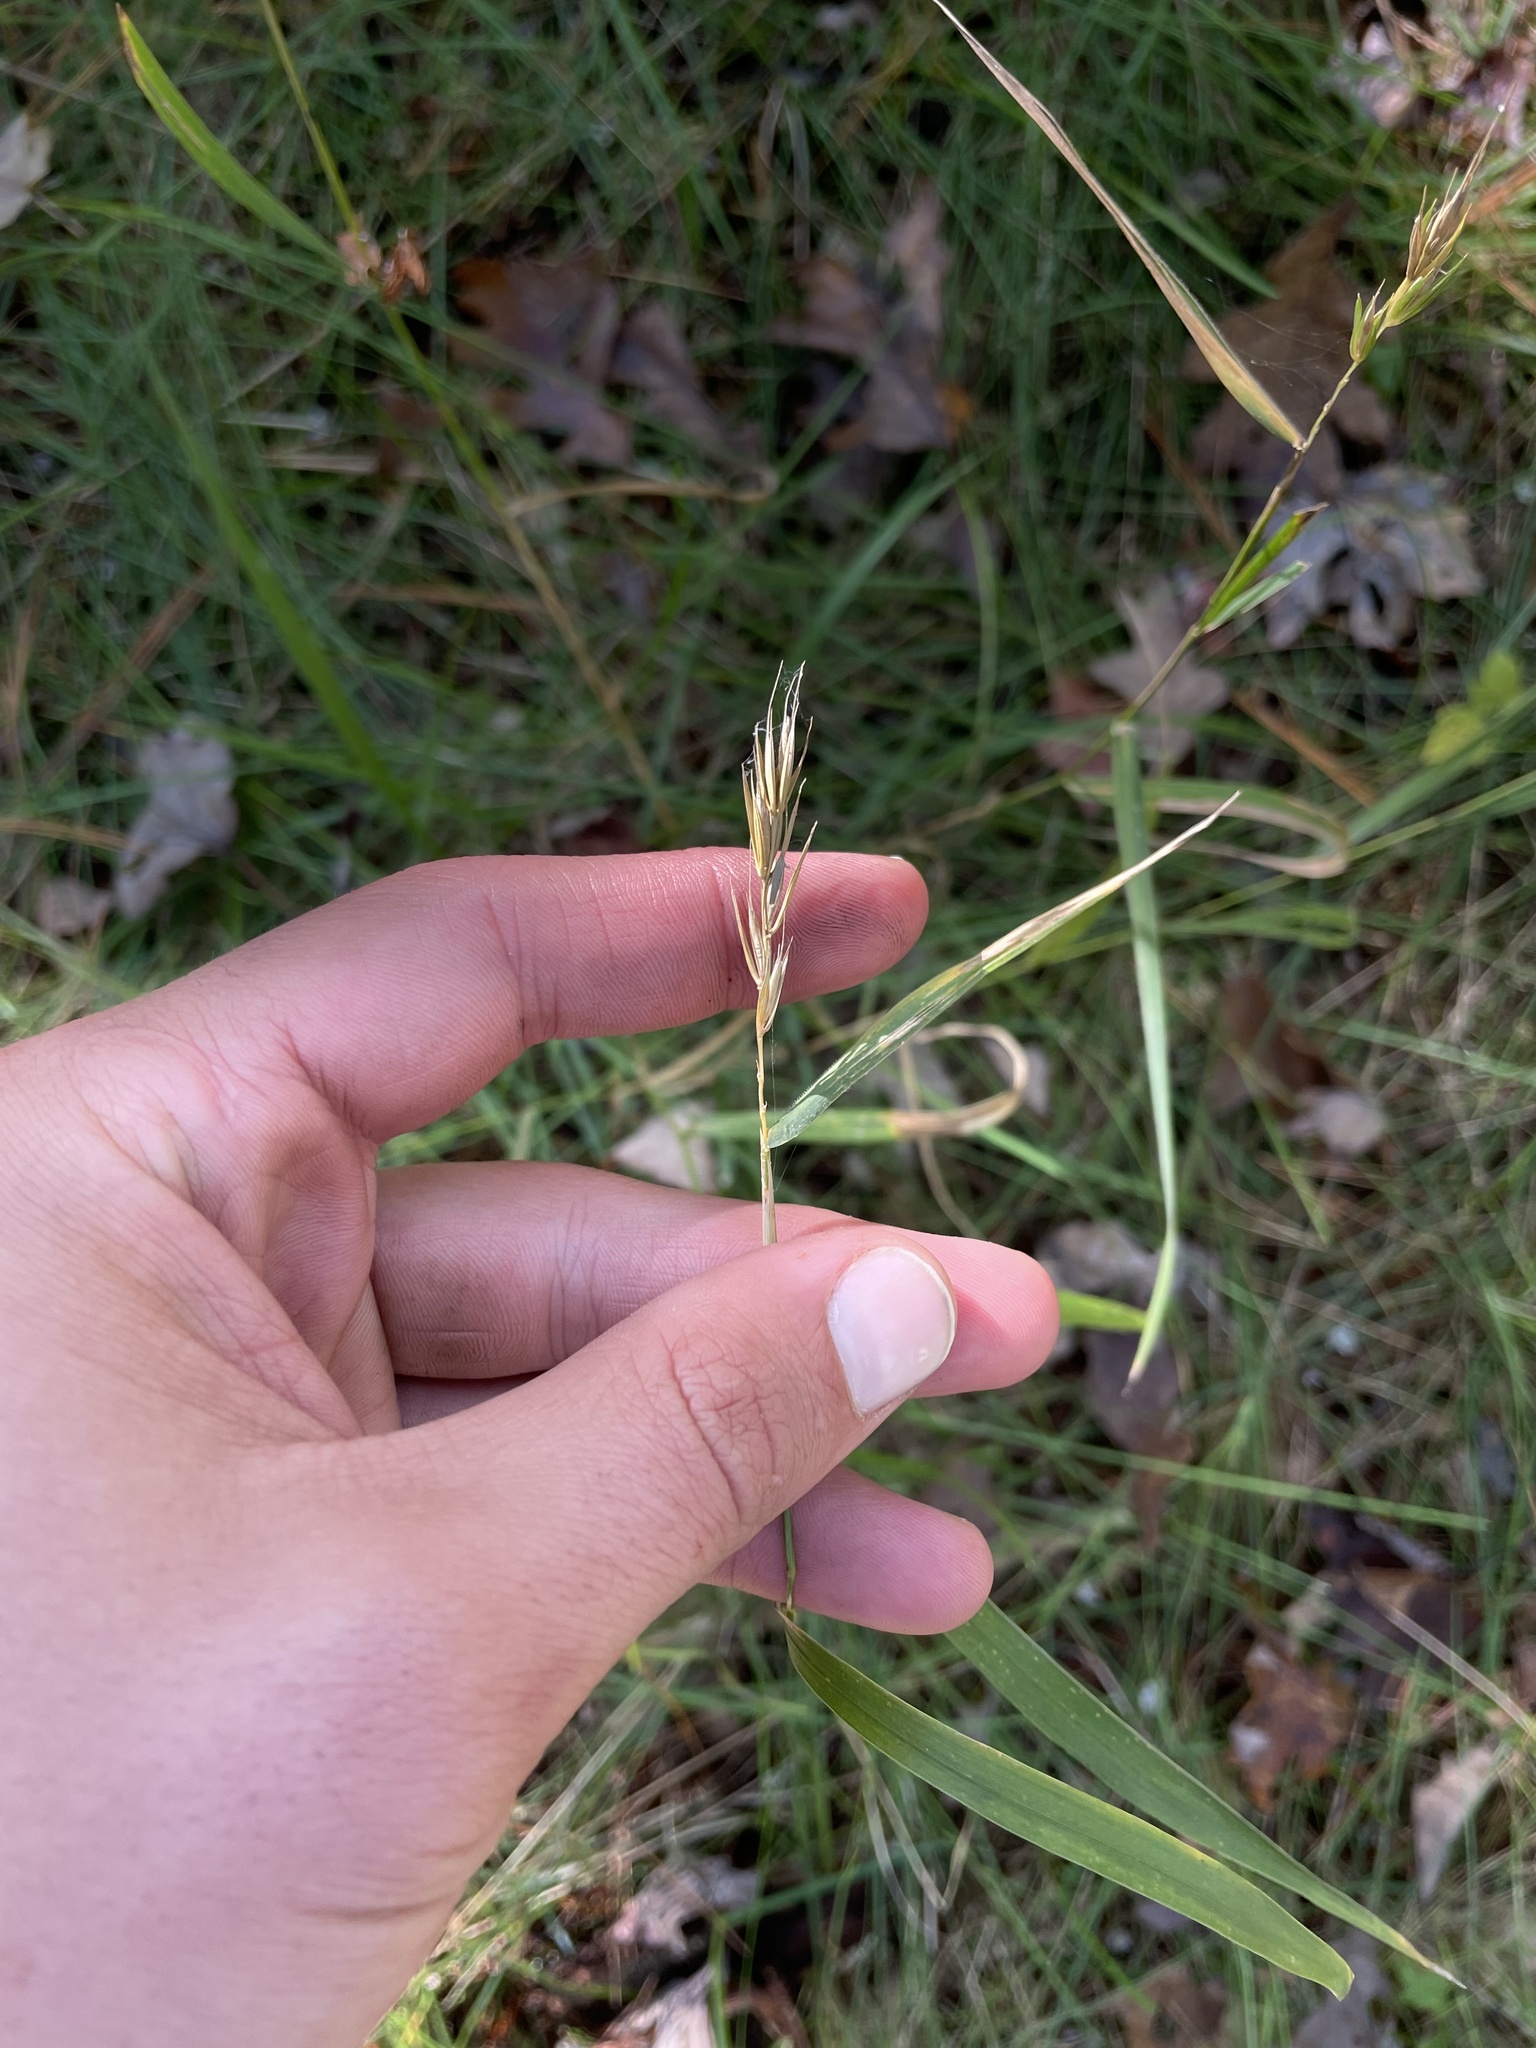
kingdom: Plantae
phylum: Tracheophyta
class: Liliopsida
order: Poales
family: Poaceae
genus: Elymus
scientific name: Elymus virginicus
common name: Common eastern wildrye
